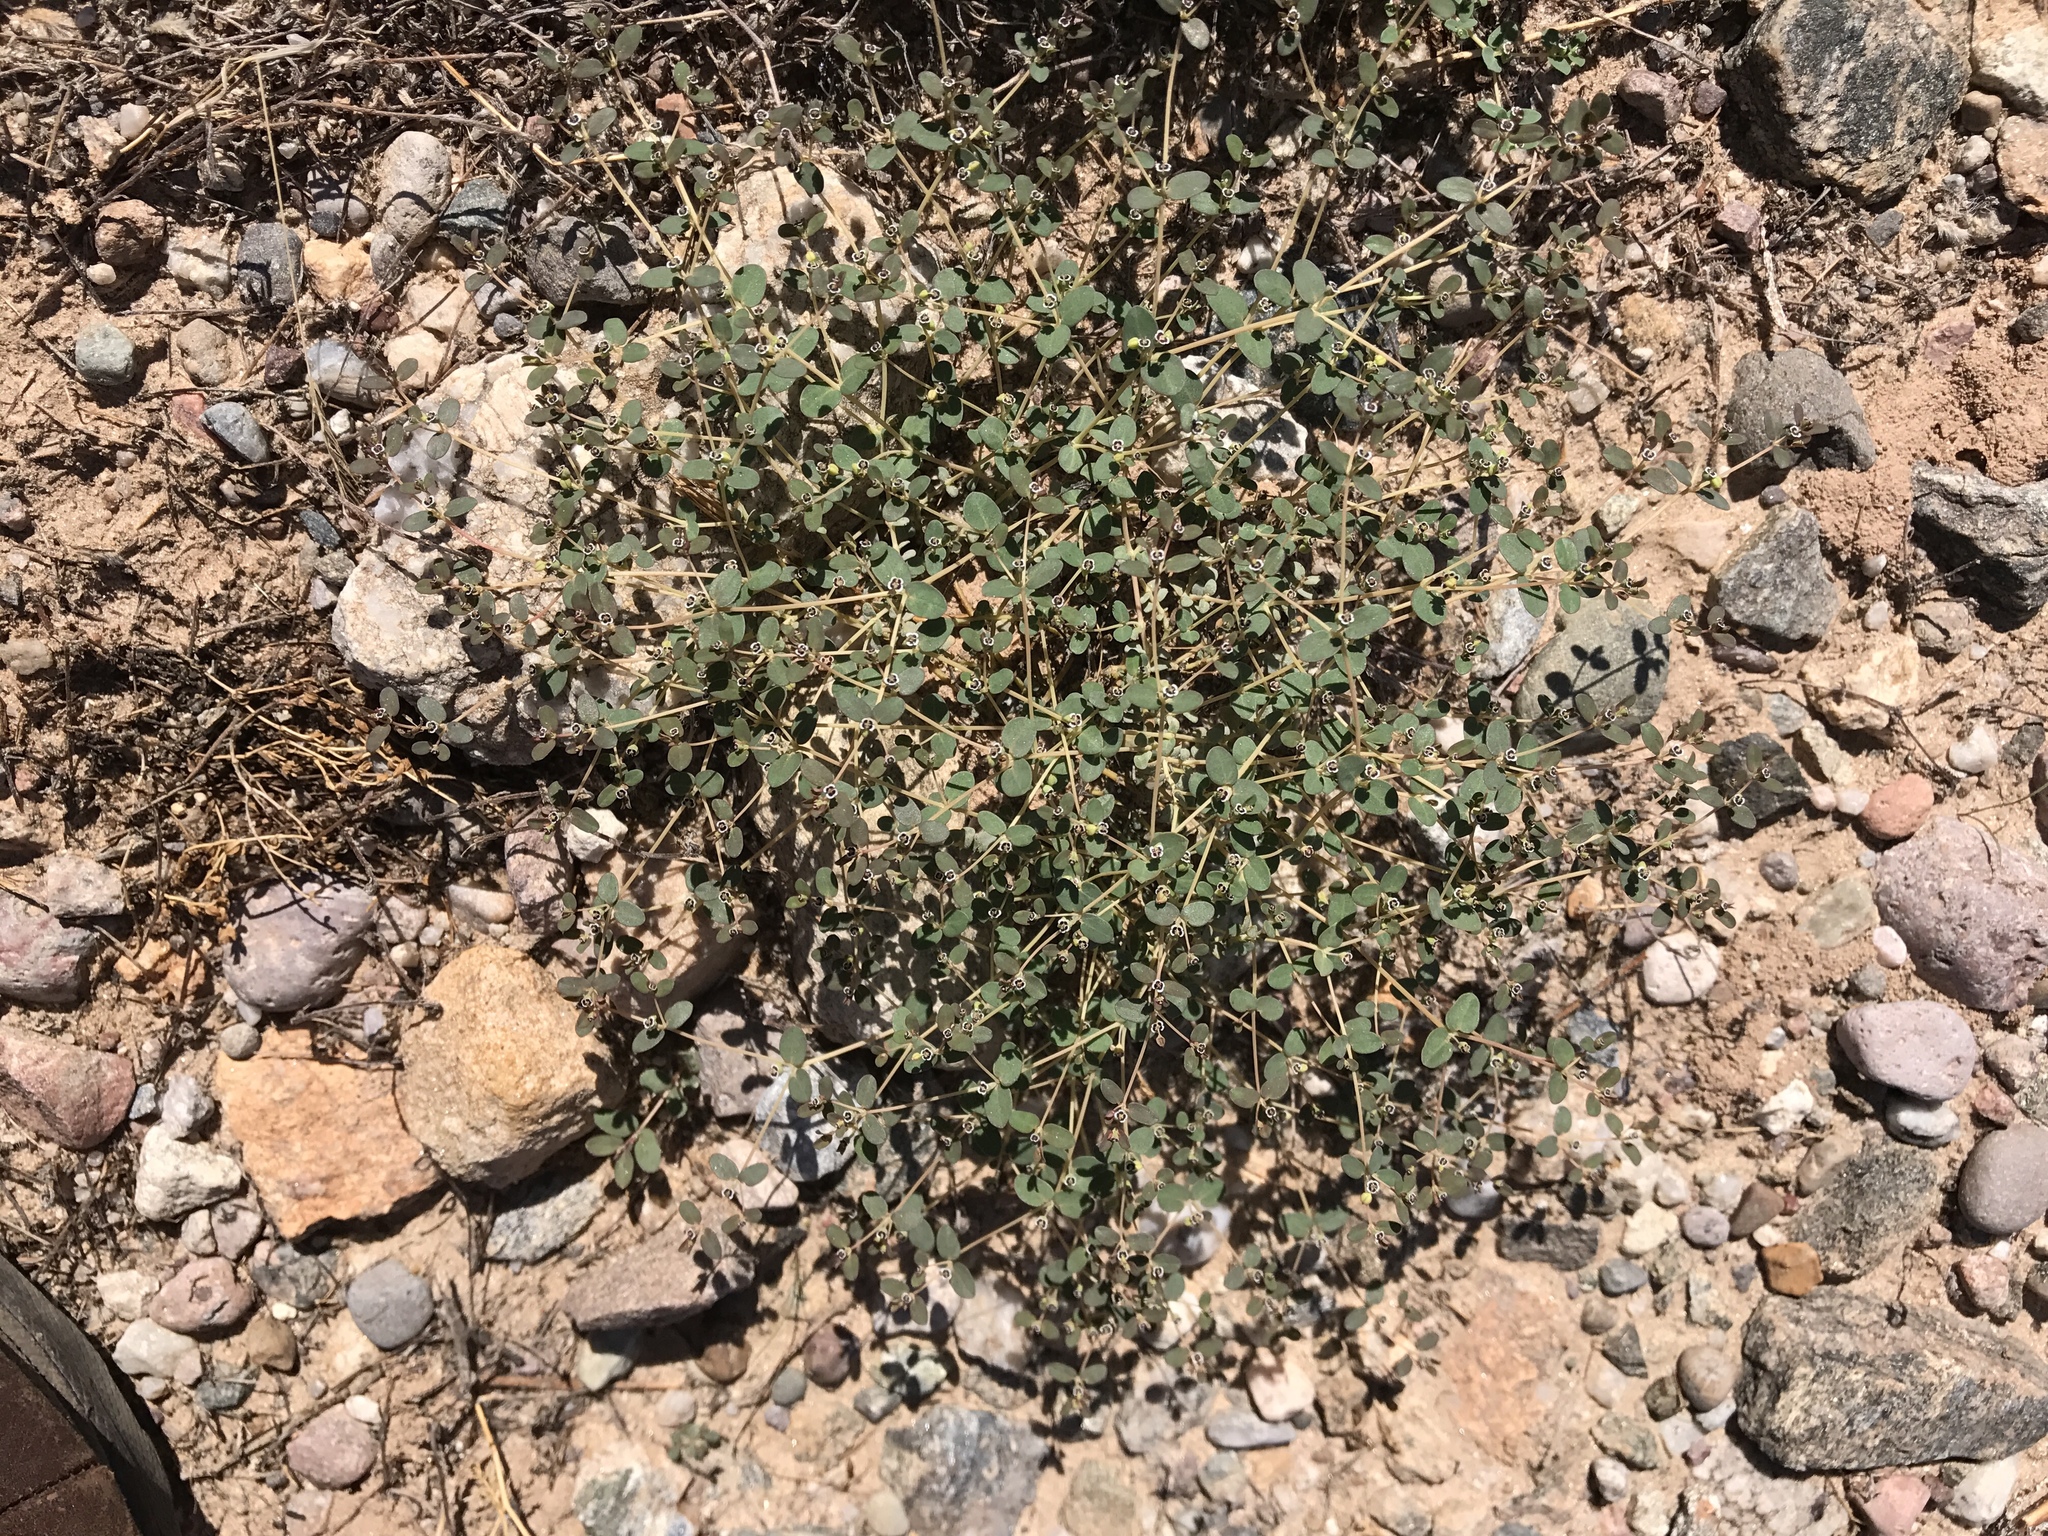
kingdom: Plantae
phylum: Tracheophyta
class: Magnoliopsida
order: Malpighiales
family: Euphorbiaceae
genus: Euphorbia
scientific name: Euphorbia polycarpa
